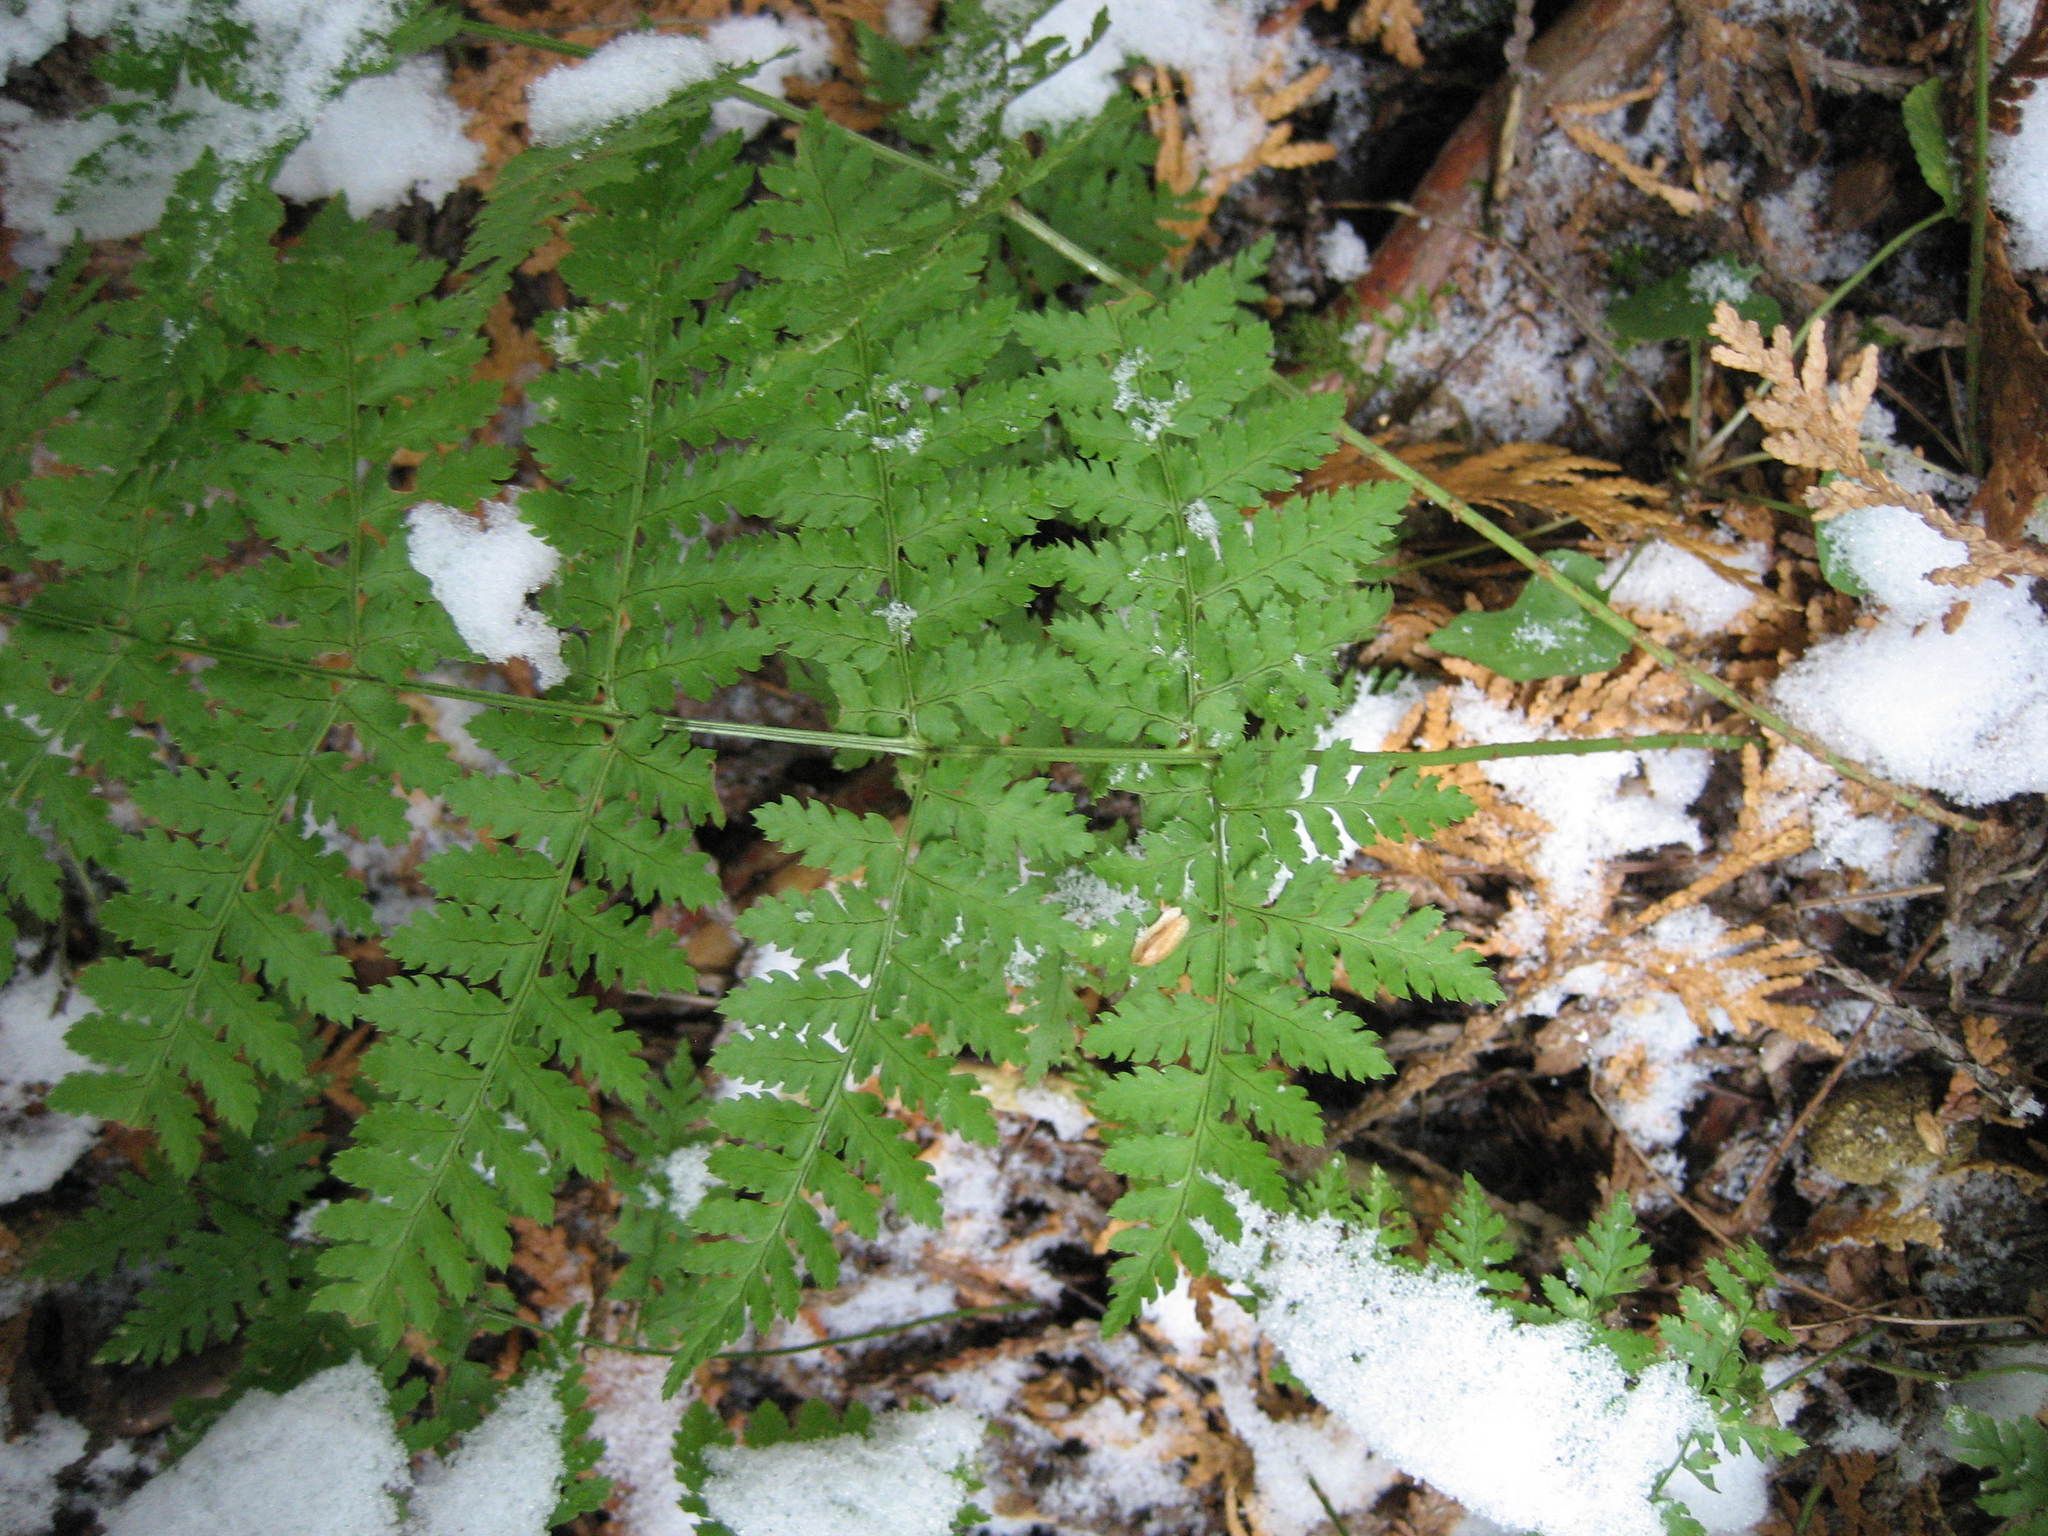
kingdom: Plantae
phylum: Tracheophyta
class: Polypodiopsida
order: Polypodiales
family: Dryopteridaceae
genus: Dryopteris
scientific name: Dryopteris intermedia
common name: Evergreen wood fern
